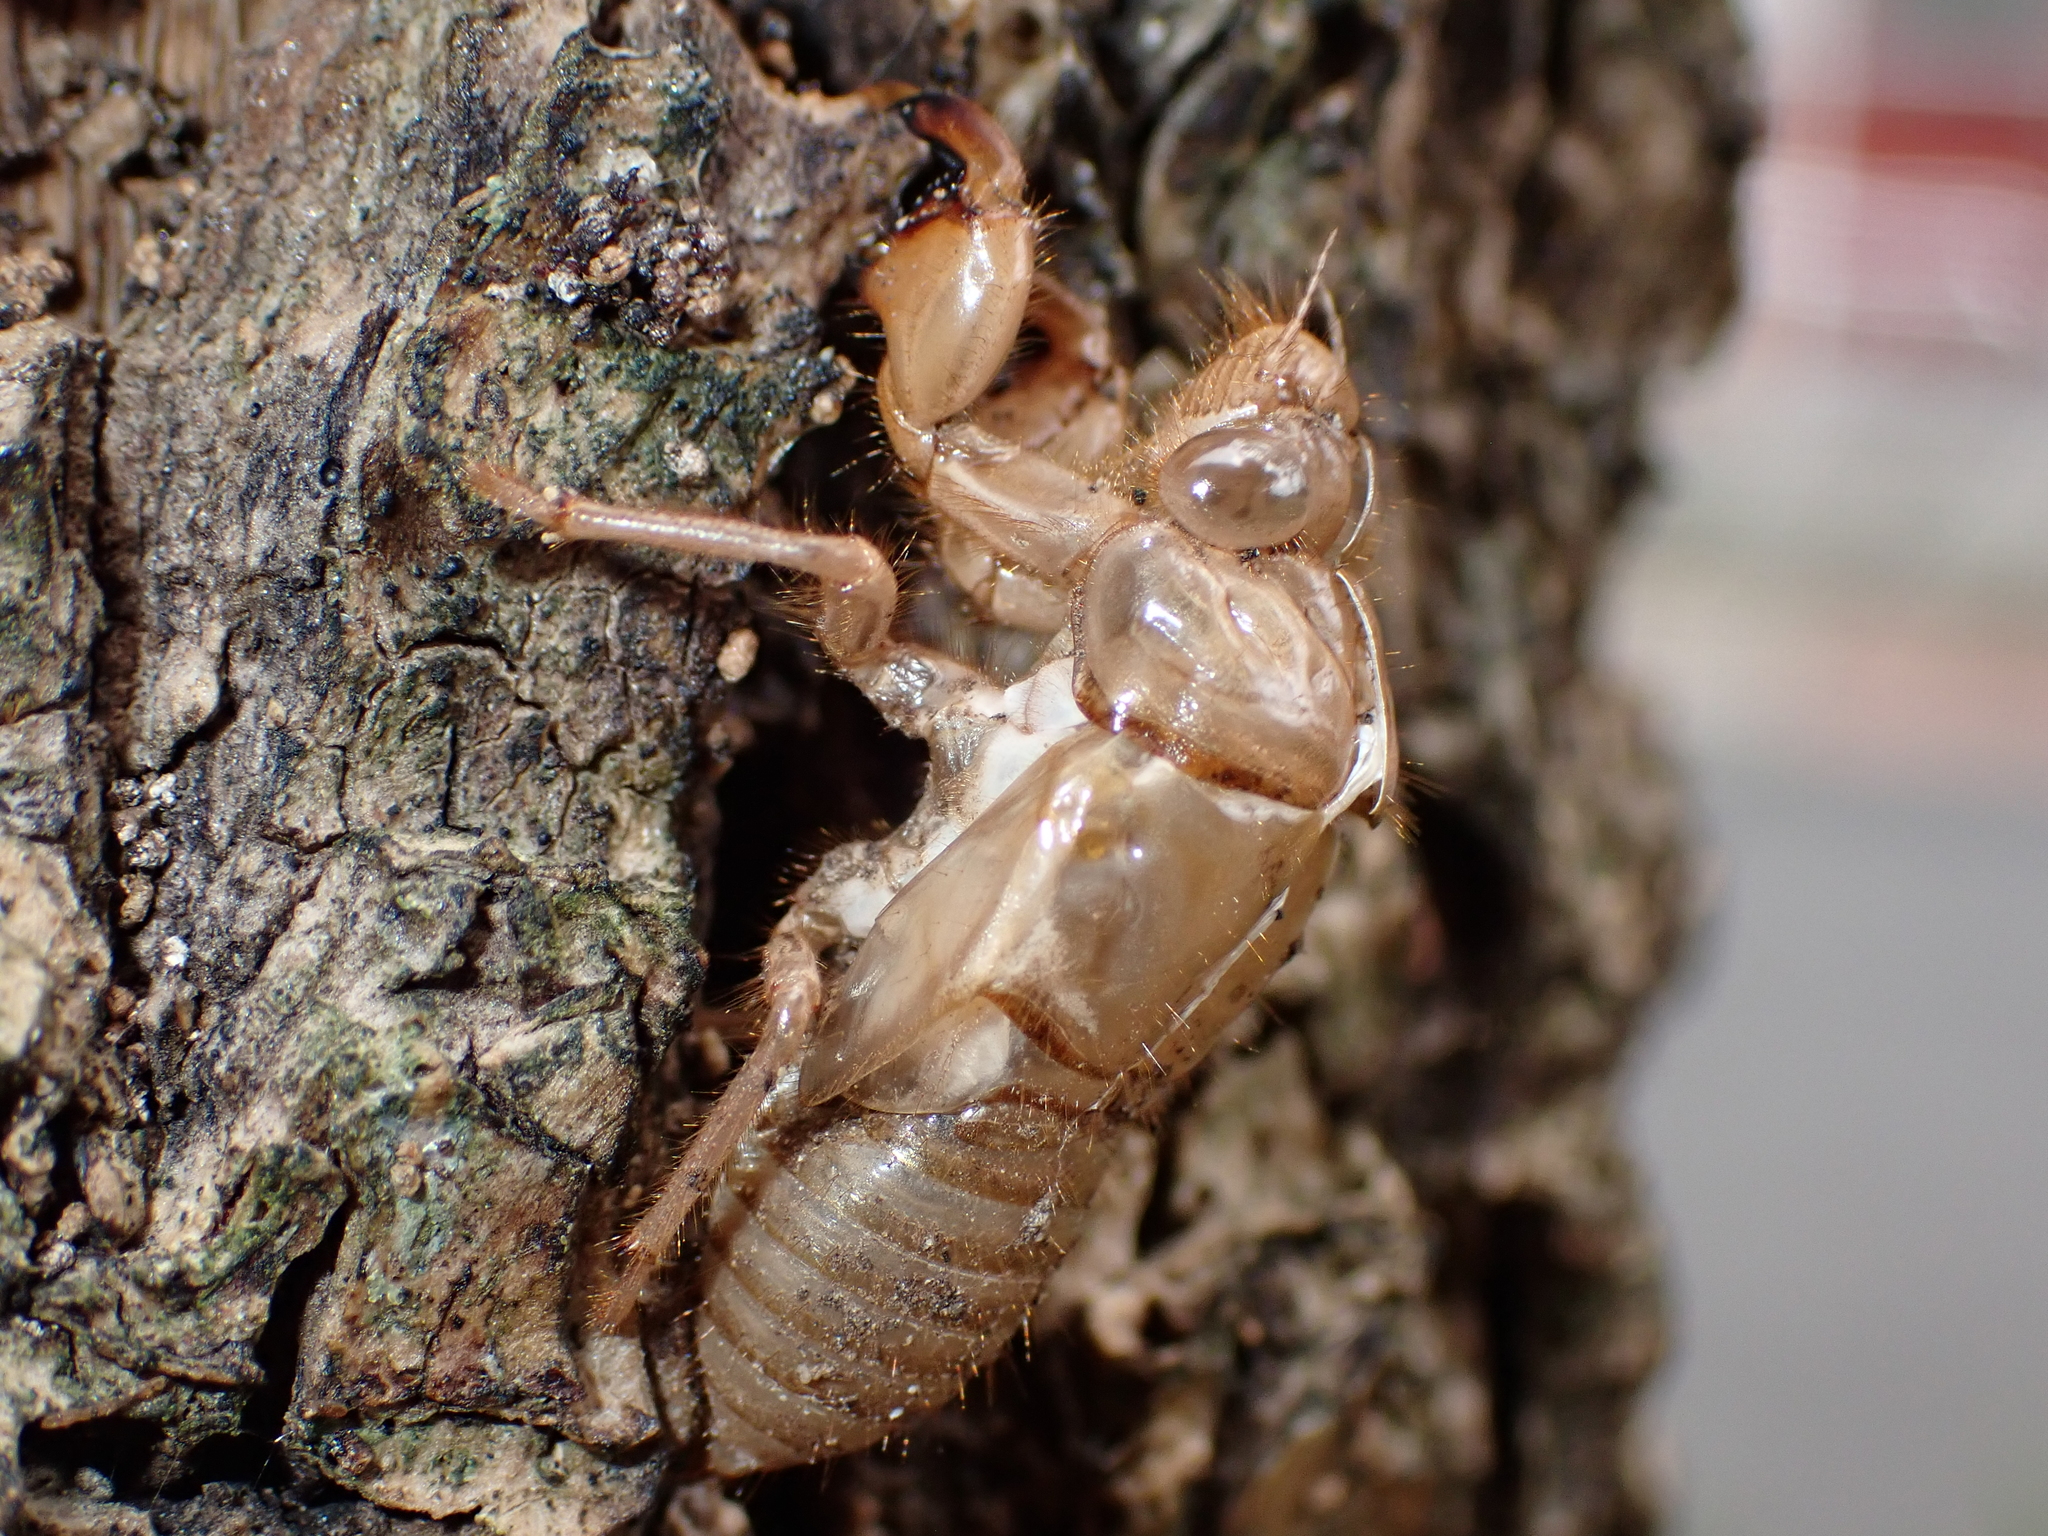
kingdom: Animalia
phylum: Arthropoda
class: Insecta
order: Hemiptera
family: Cicadidae
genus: Amphipsalta
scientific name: Amphipsalta cingulata
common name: Clapping cicada
